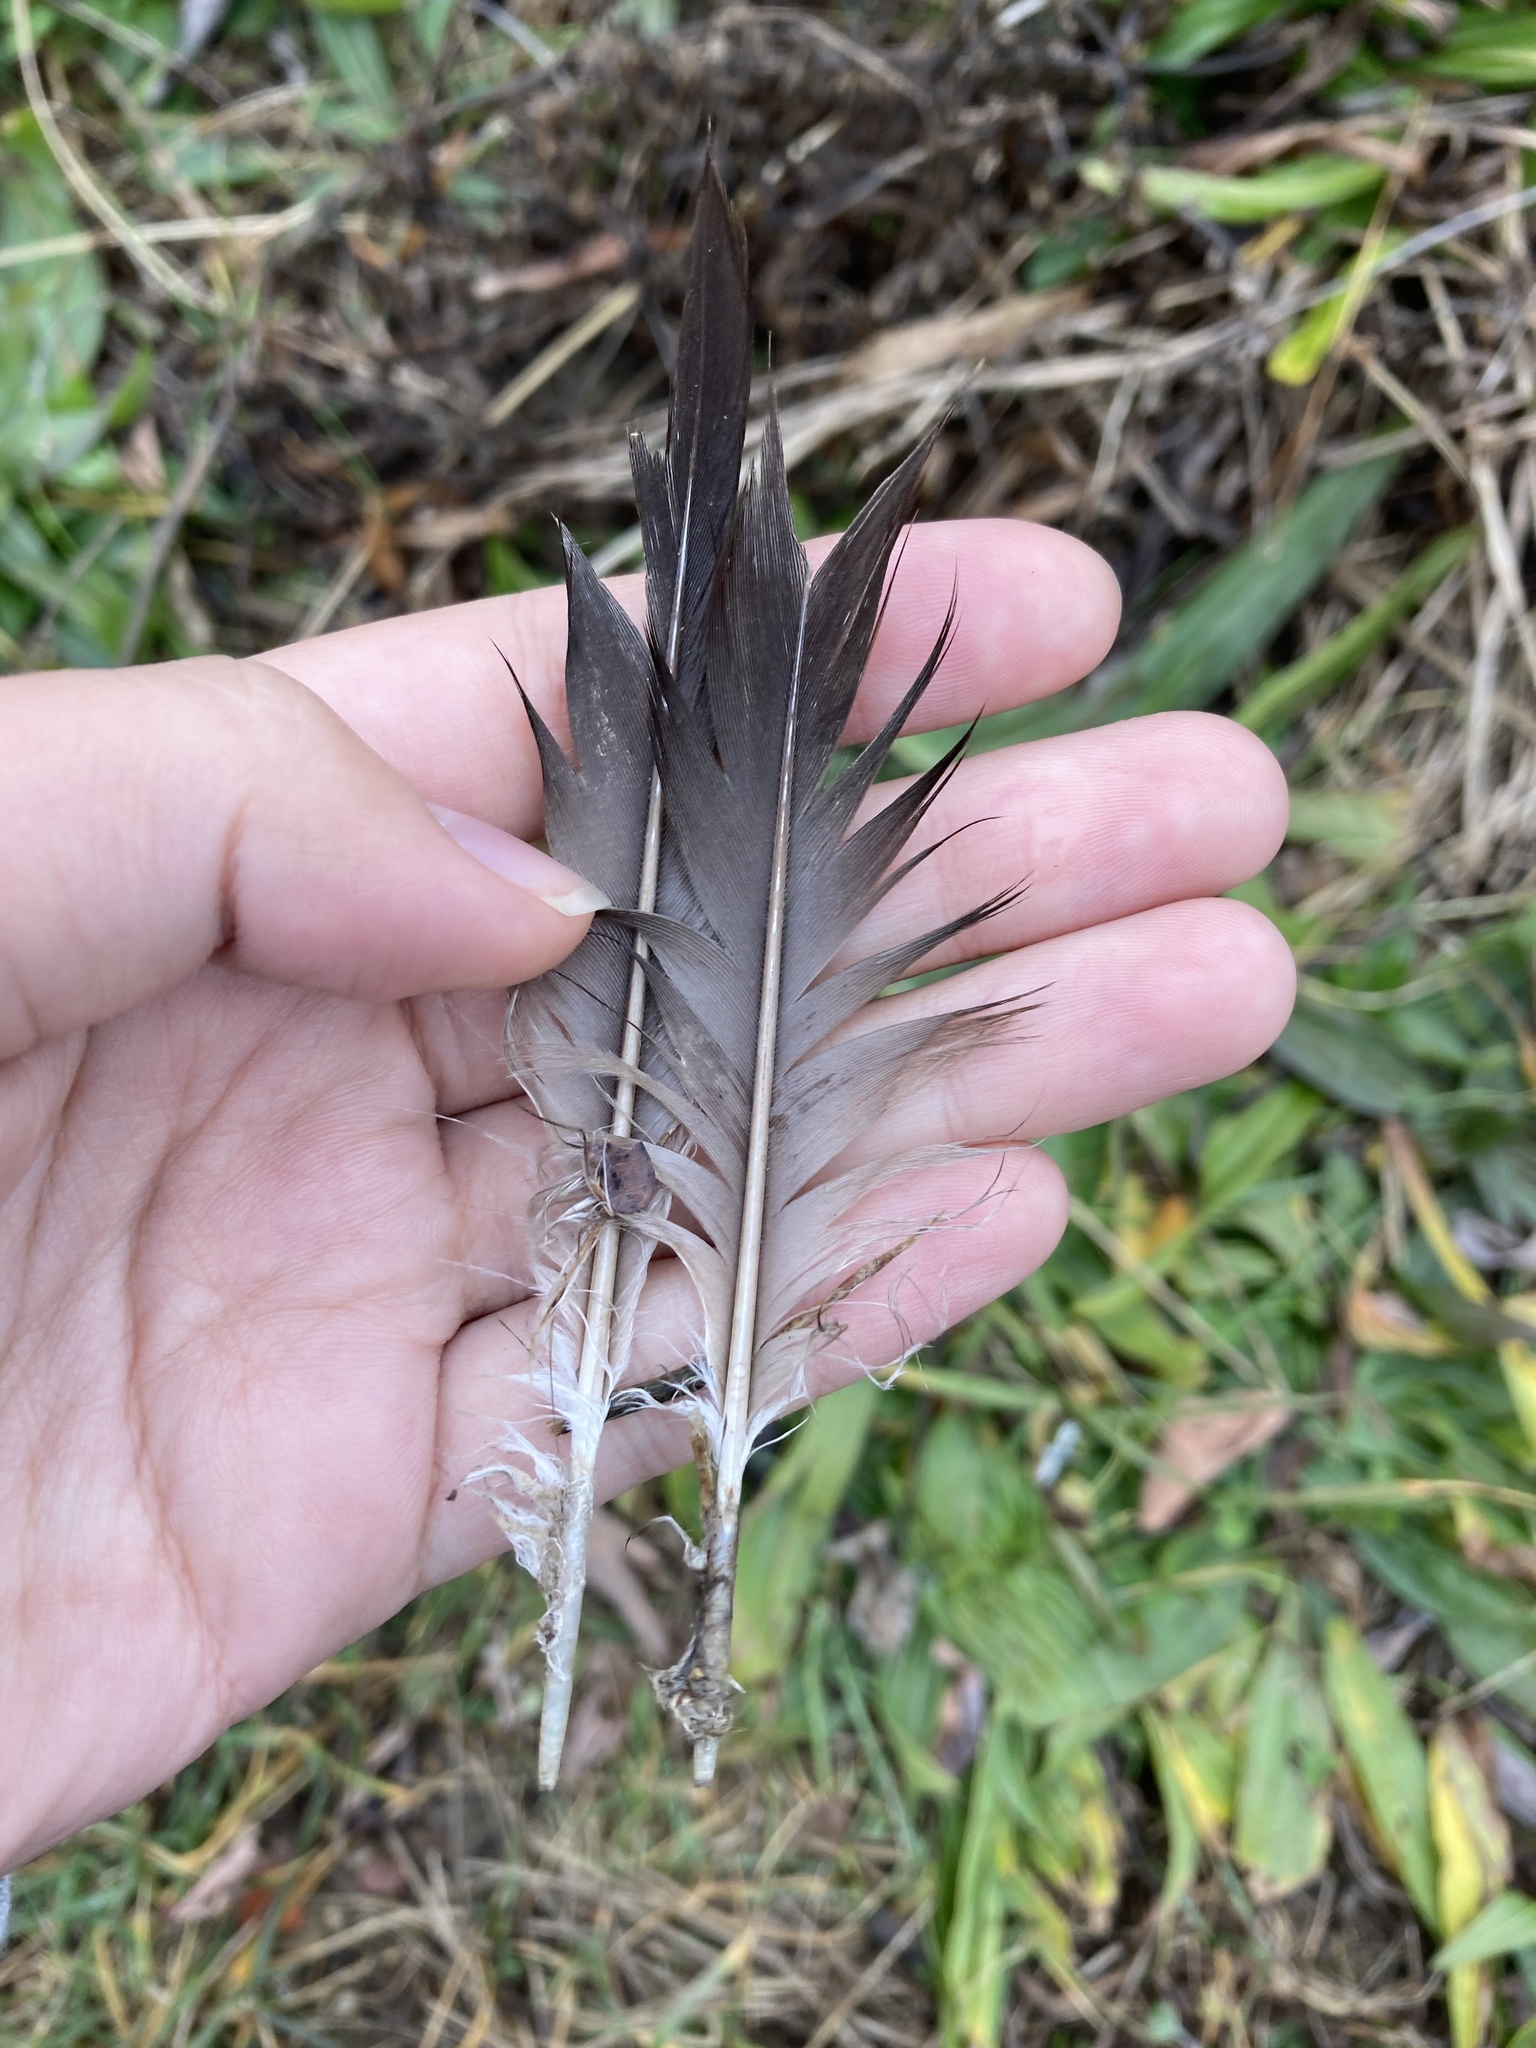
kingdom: Animalia
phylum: Chordata
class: Aves
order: Suliformes
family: Phalacrocoracidae
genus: Phalacrocorax
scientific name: Phalacrocorax auritus
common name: Double-crested cormorant
